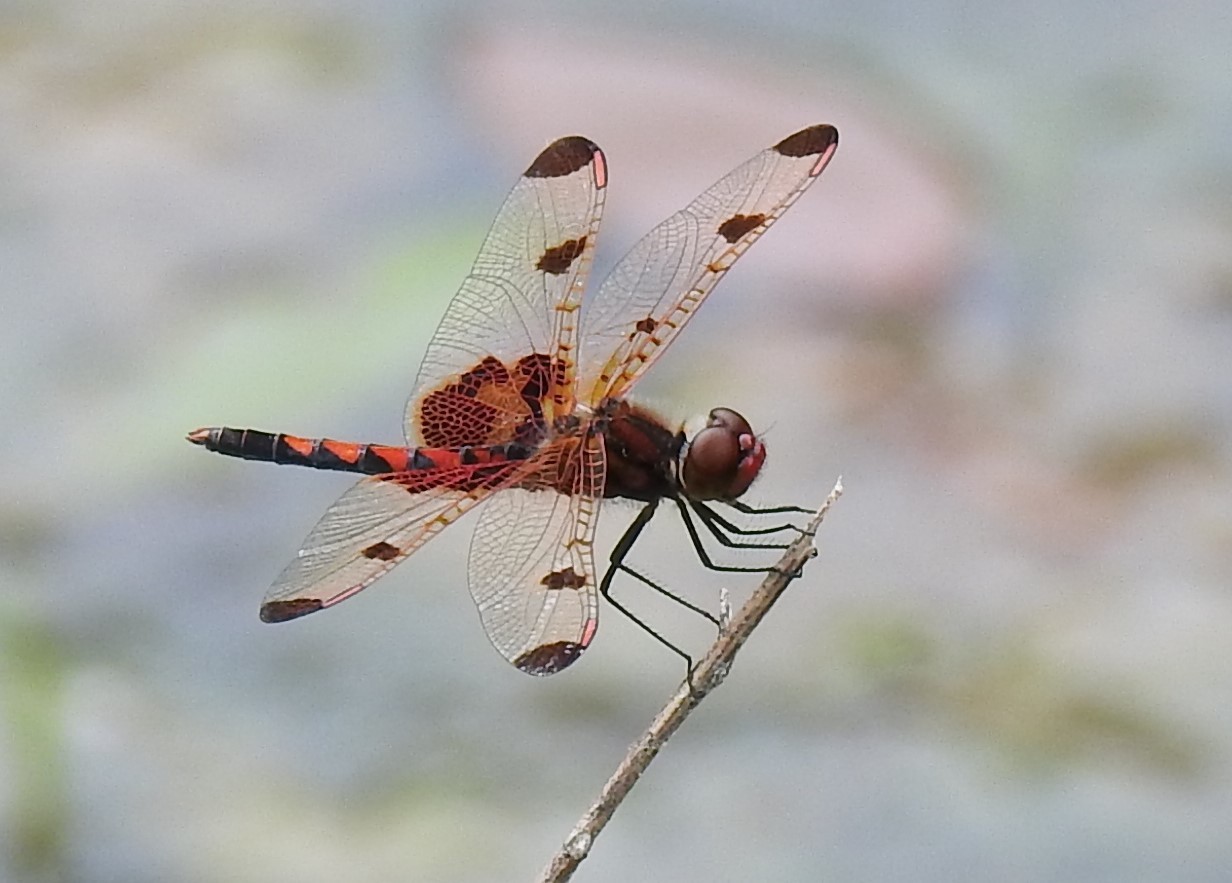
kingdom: Animalia
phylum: Arthropoda
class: Insecta
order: Odonata
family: Libellulidae
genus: Celithemis
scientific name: Celithemis elisa
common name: Calico pennant
